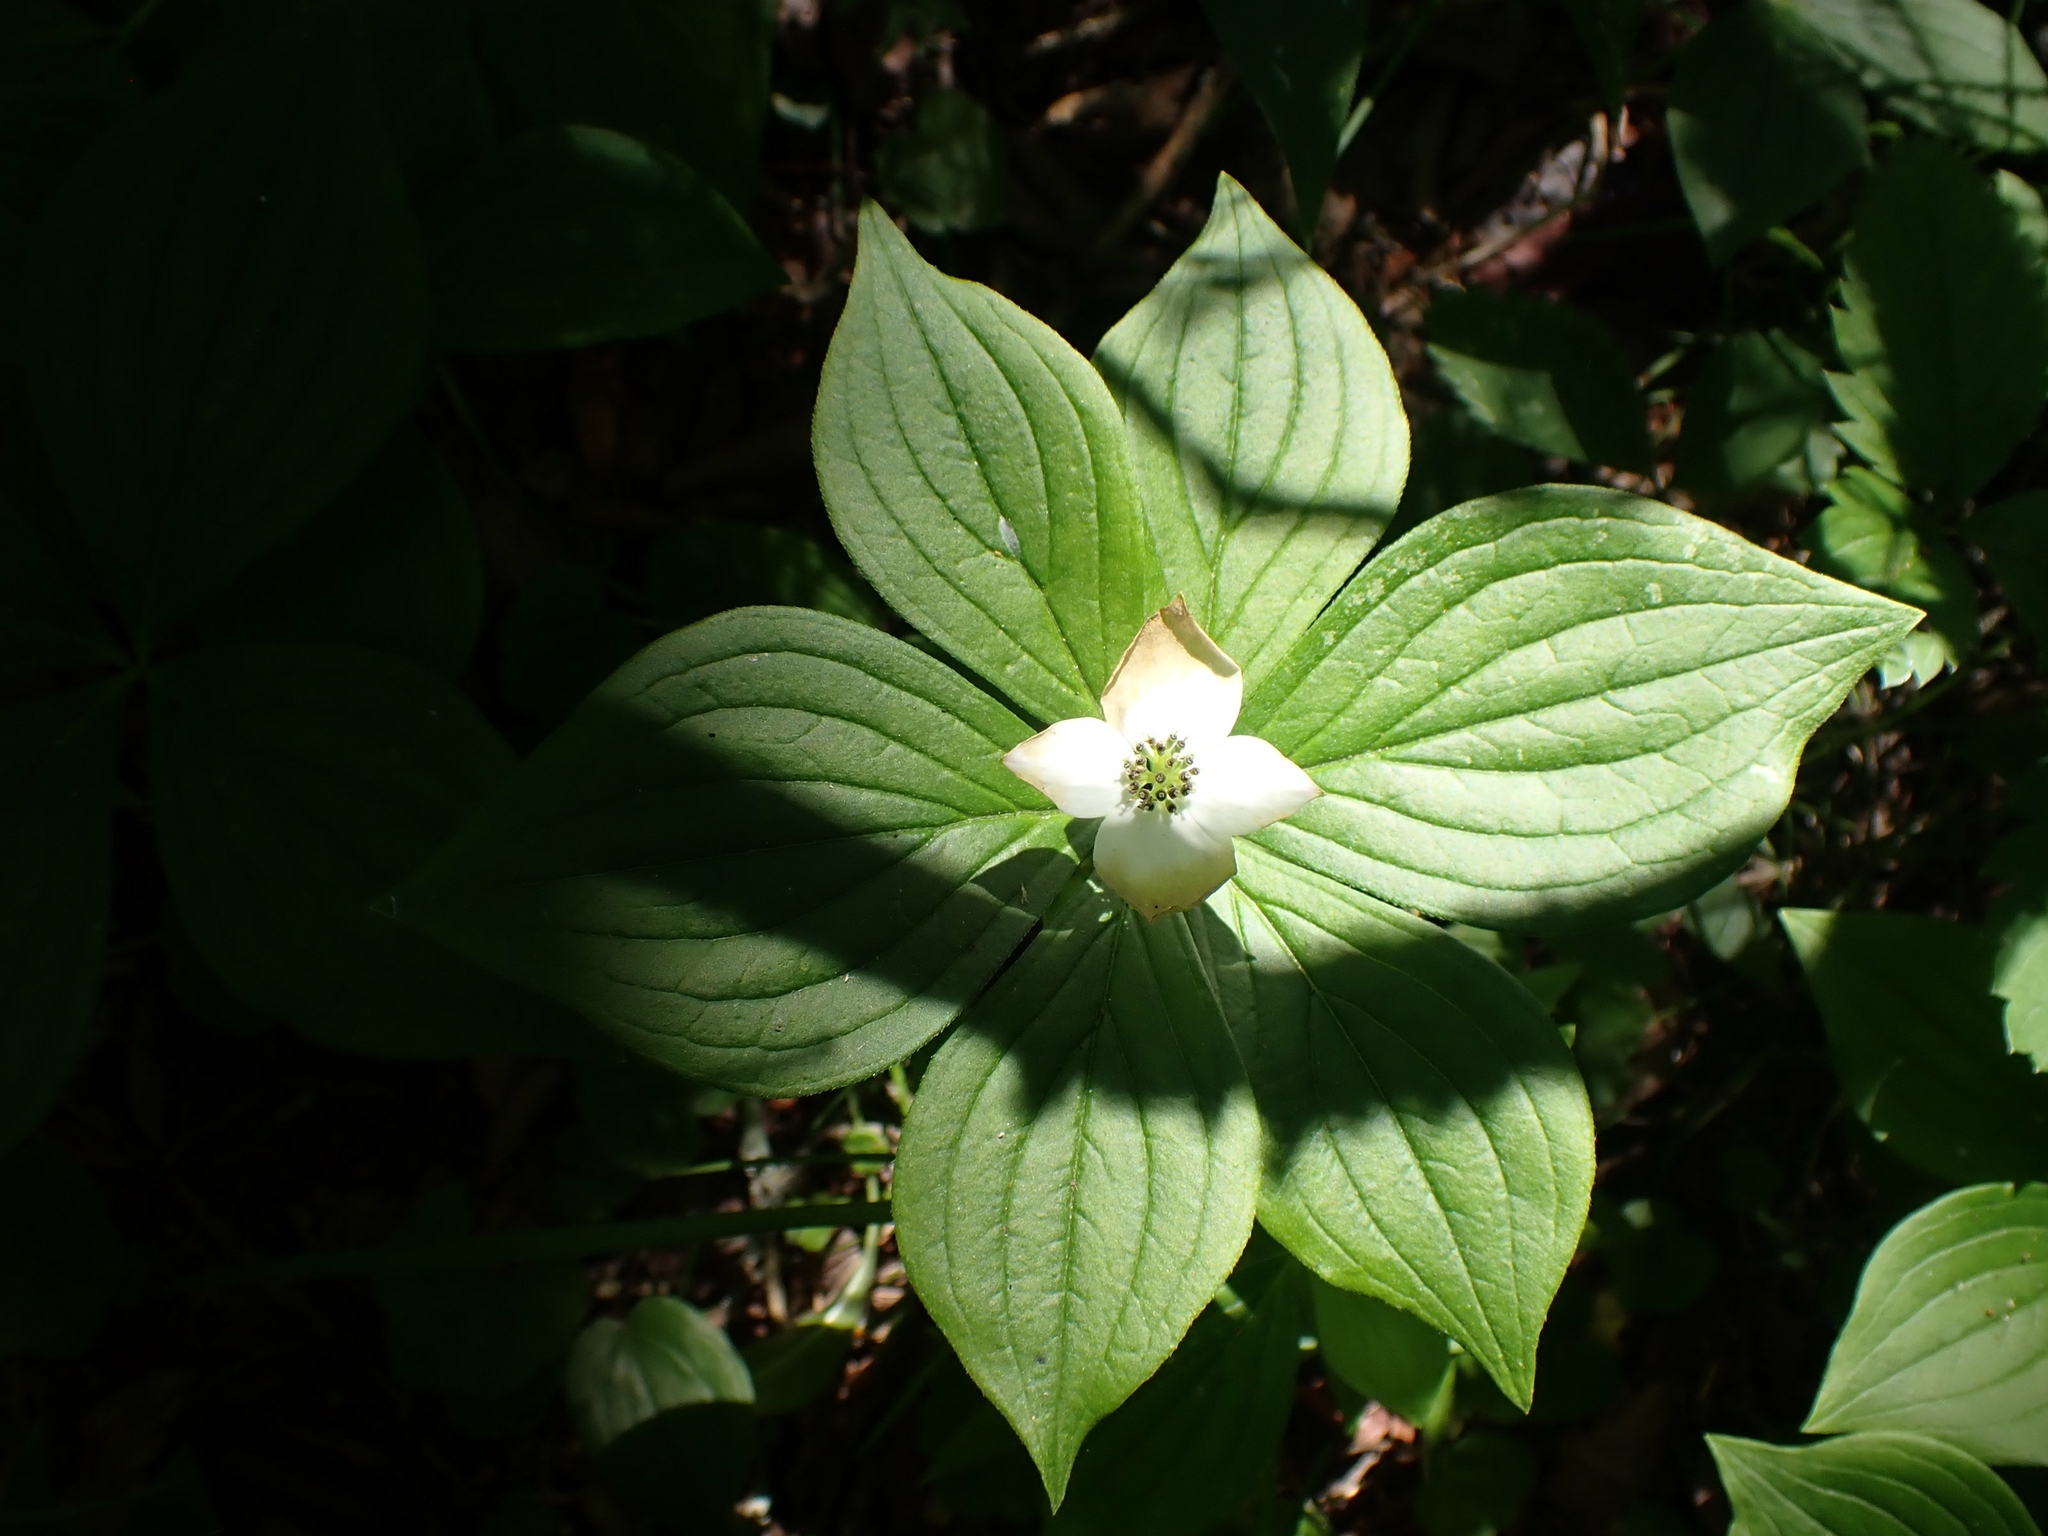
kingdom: Plantae
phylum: Tracheophyta
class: Magnoliopsida
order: Cornales
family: Cornaceae
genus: Cornus
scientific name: Cornus canadensis
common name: Creeping dogwood
